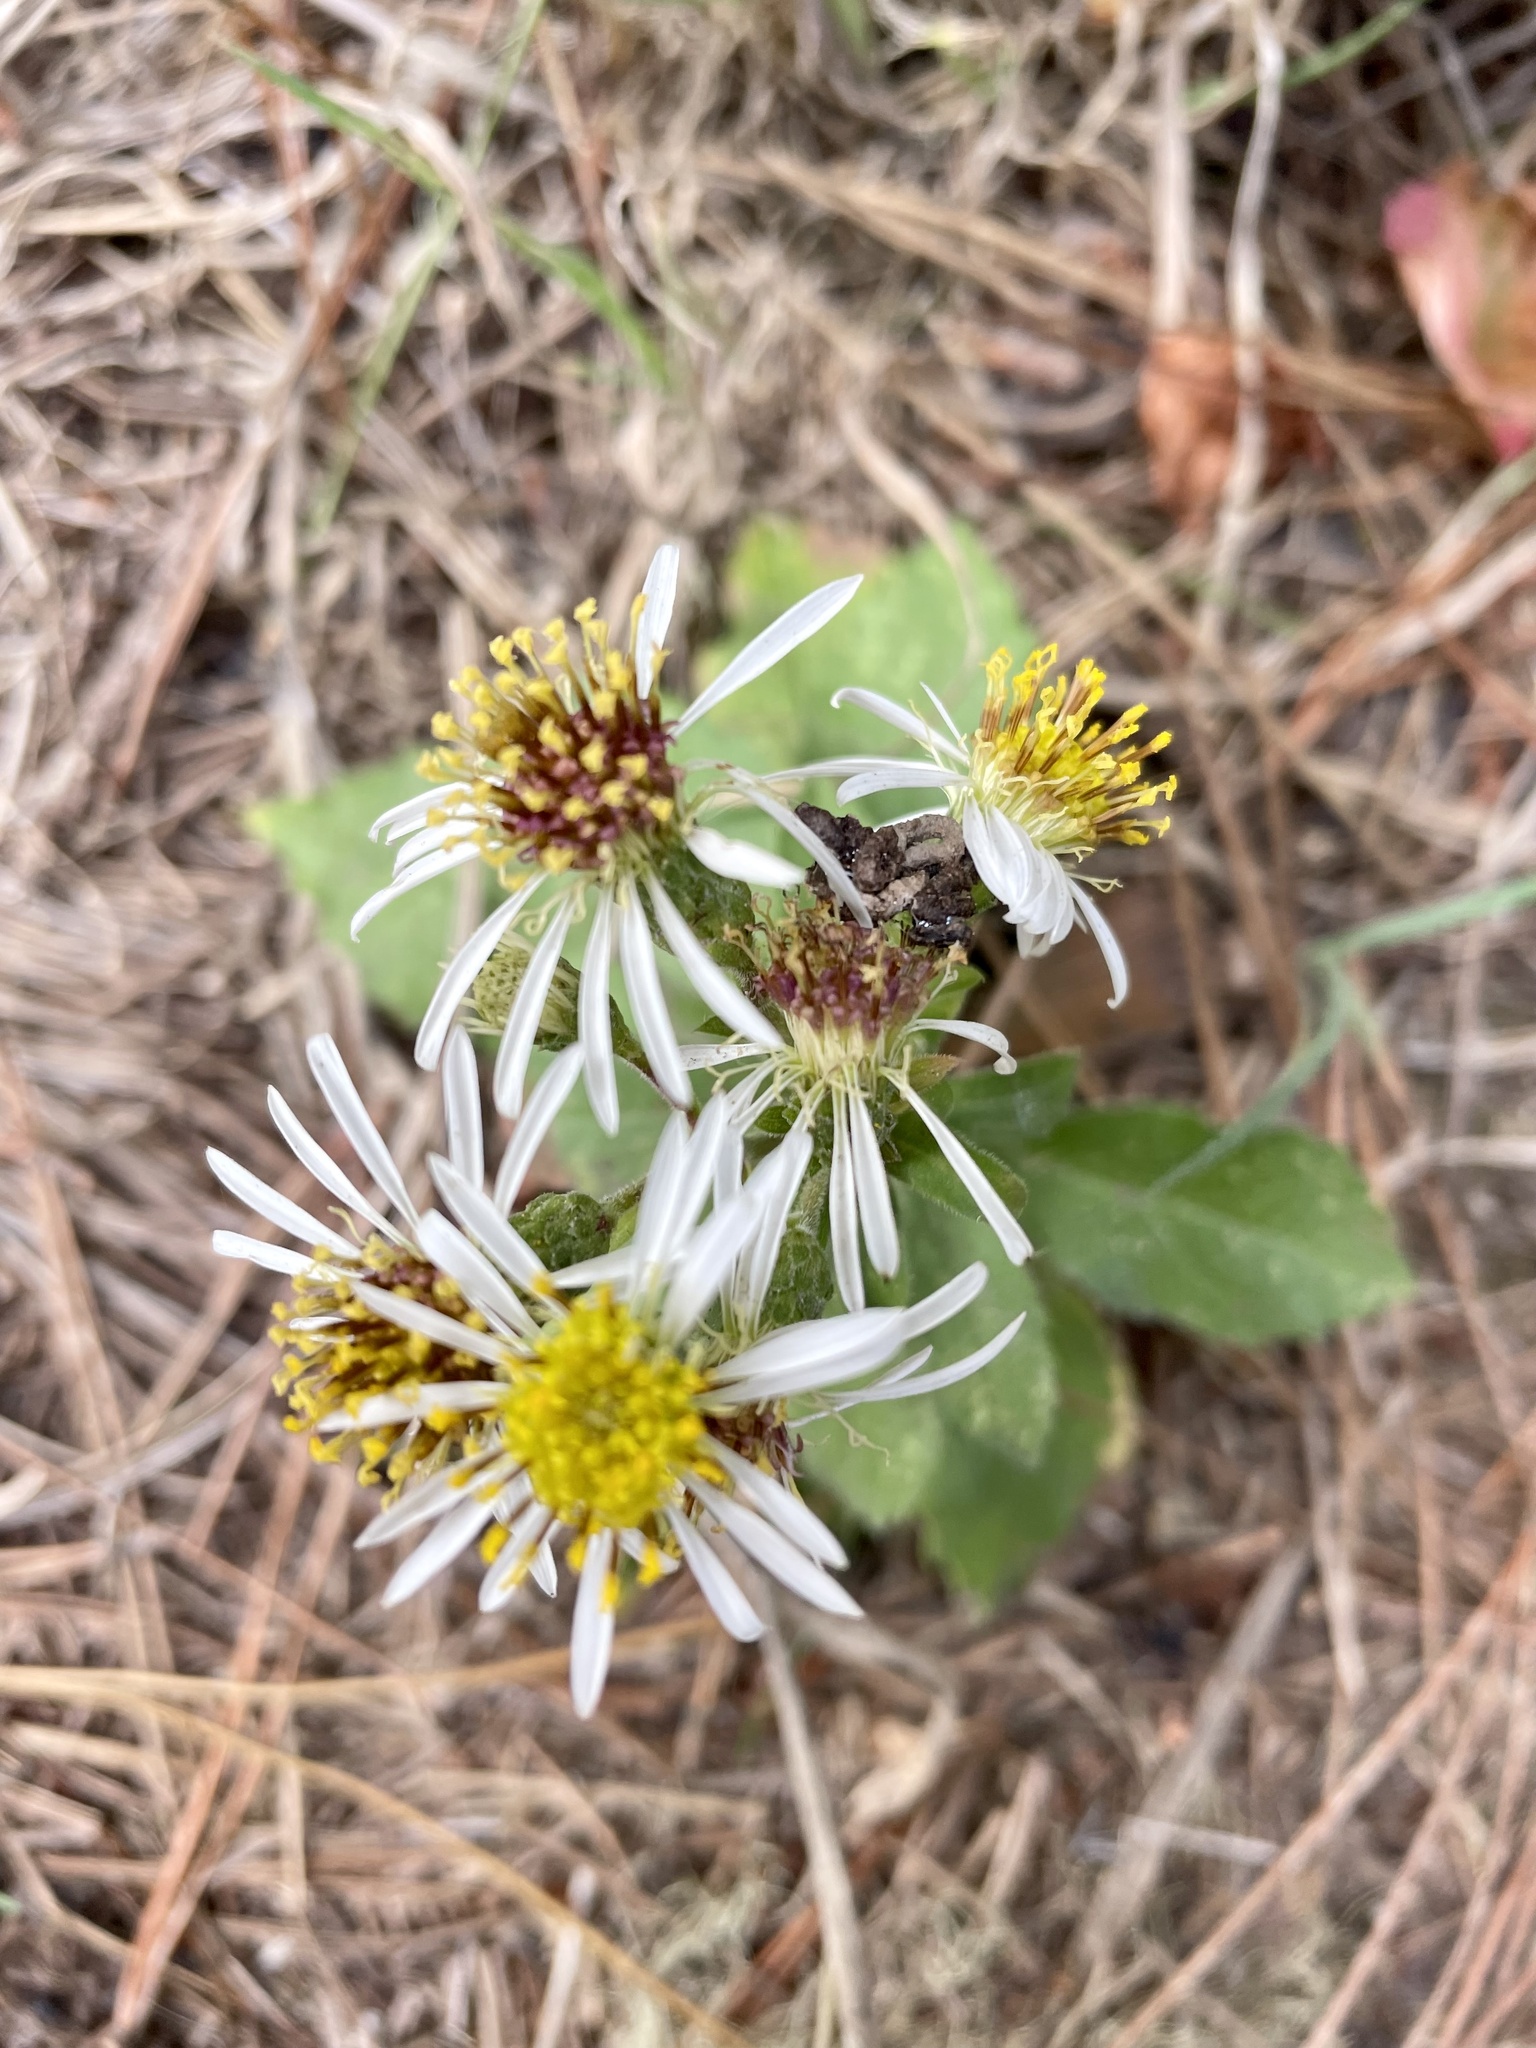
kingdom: Plantae
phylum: Tracheophyta
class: Magnoliopsida
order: Asterales
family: Asteraceae
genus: Eurybia
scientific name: Eurybia radulina
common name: Rough-leaved aster
